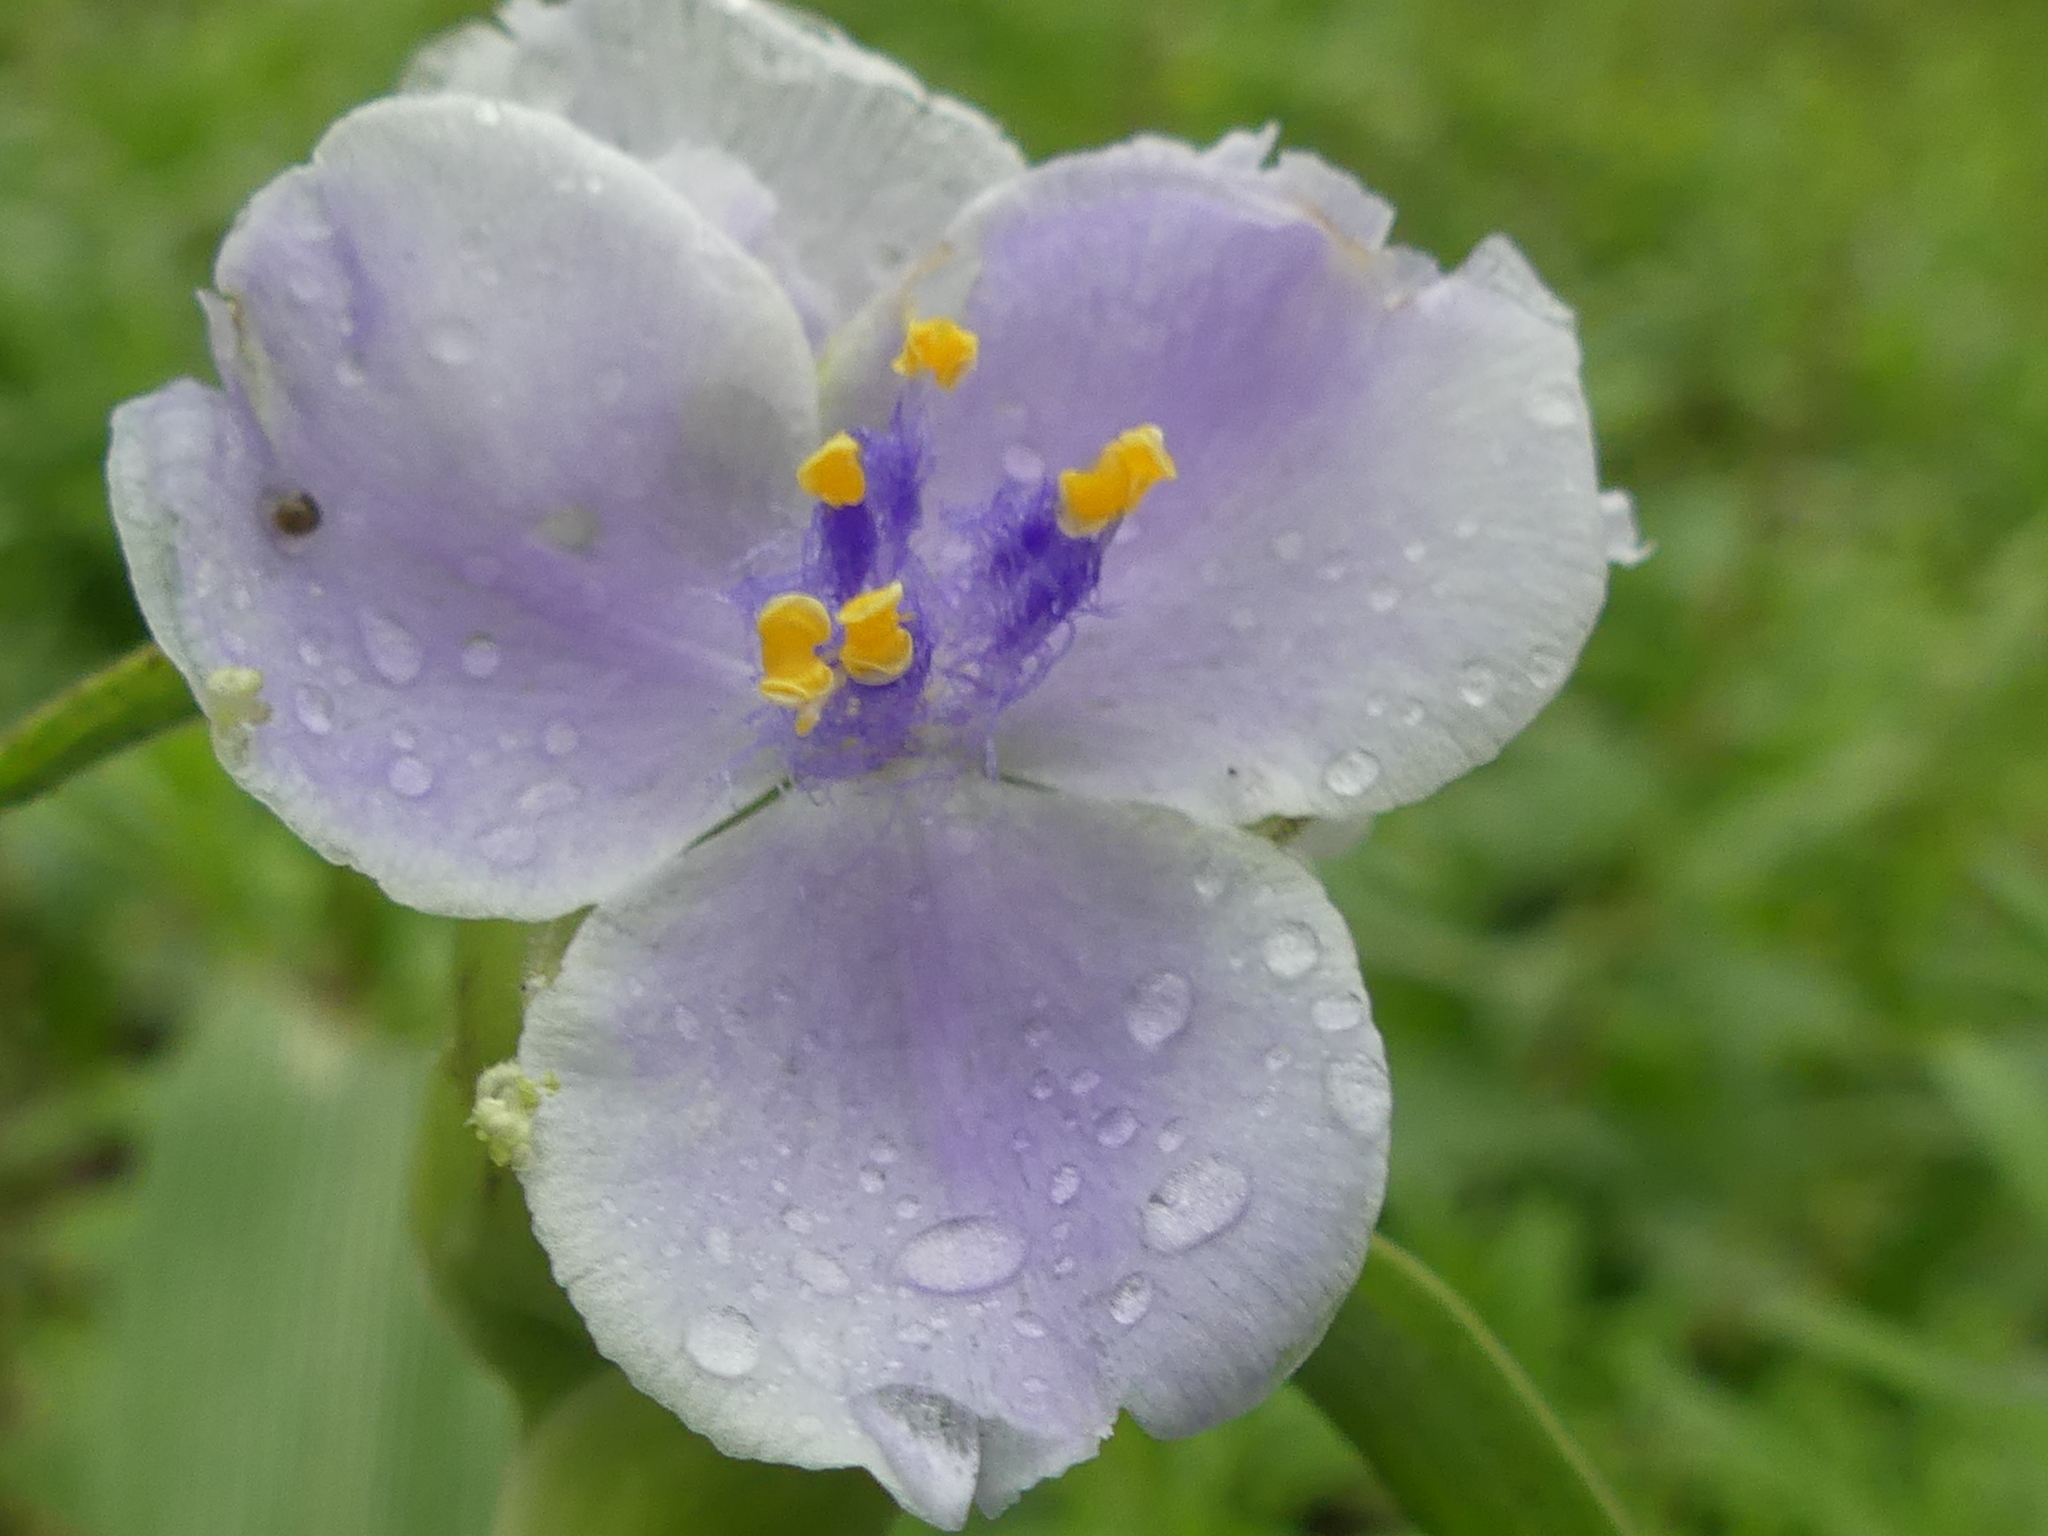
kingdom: Plantae
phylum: Tracheophyta
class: Liliopsida
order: Commelinales
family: Commelinaceae
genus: Tradescantia
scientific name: Tradescantia gigantea
